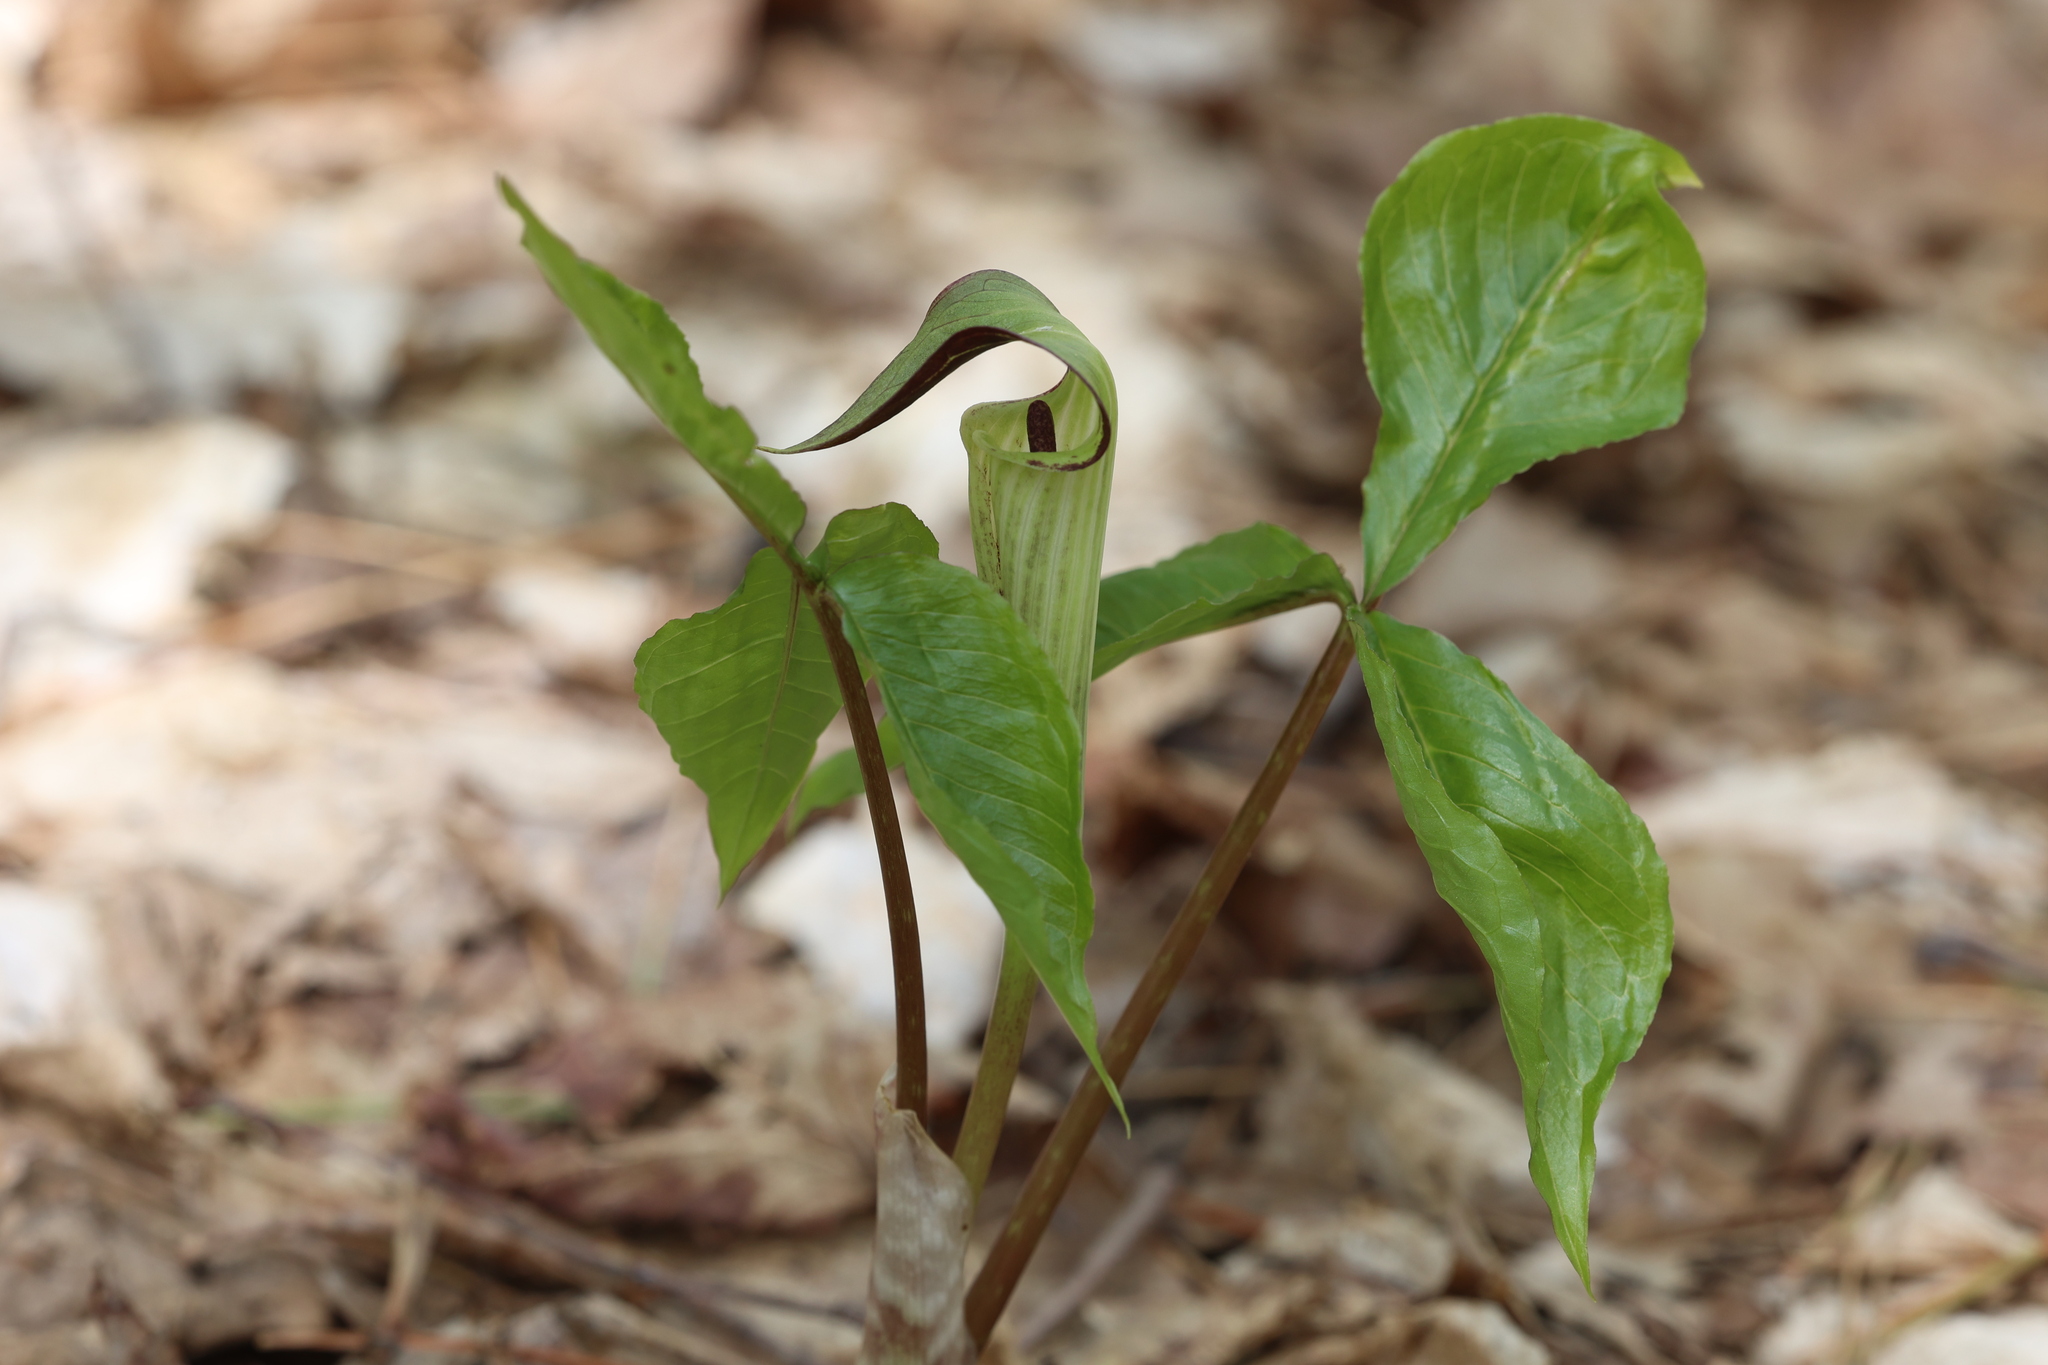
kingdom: Plantae
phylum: Tracheophyta
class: Liliopsida
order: Alismatales
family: Araceae
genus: Arisaema
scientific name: Arisaema triphyllum
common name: Jack-in-the-pulpit
